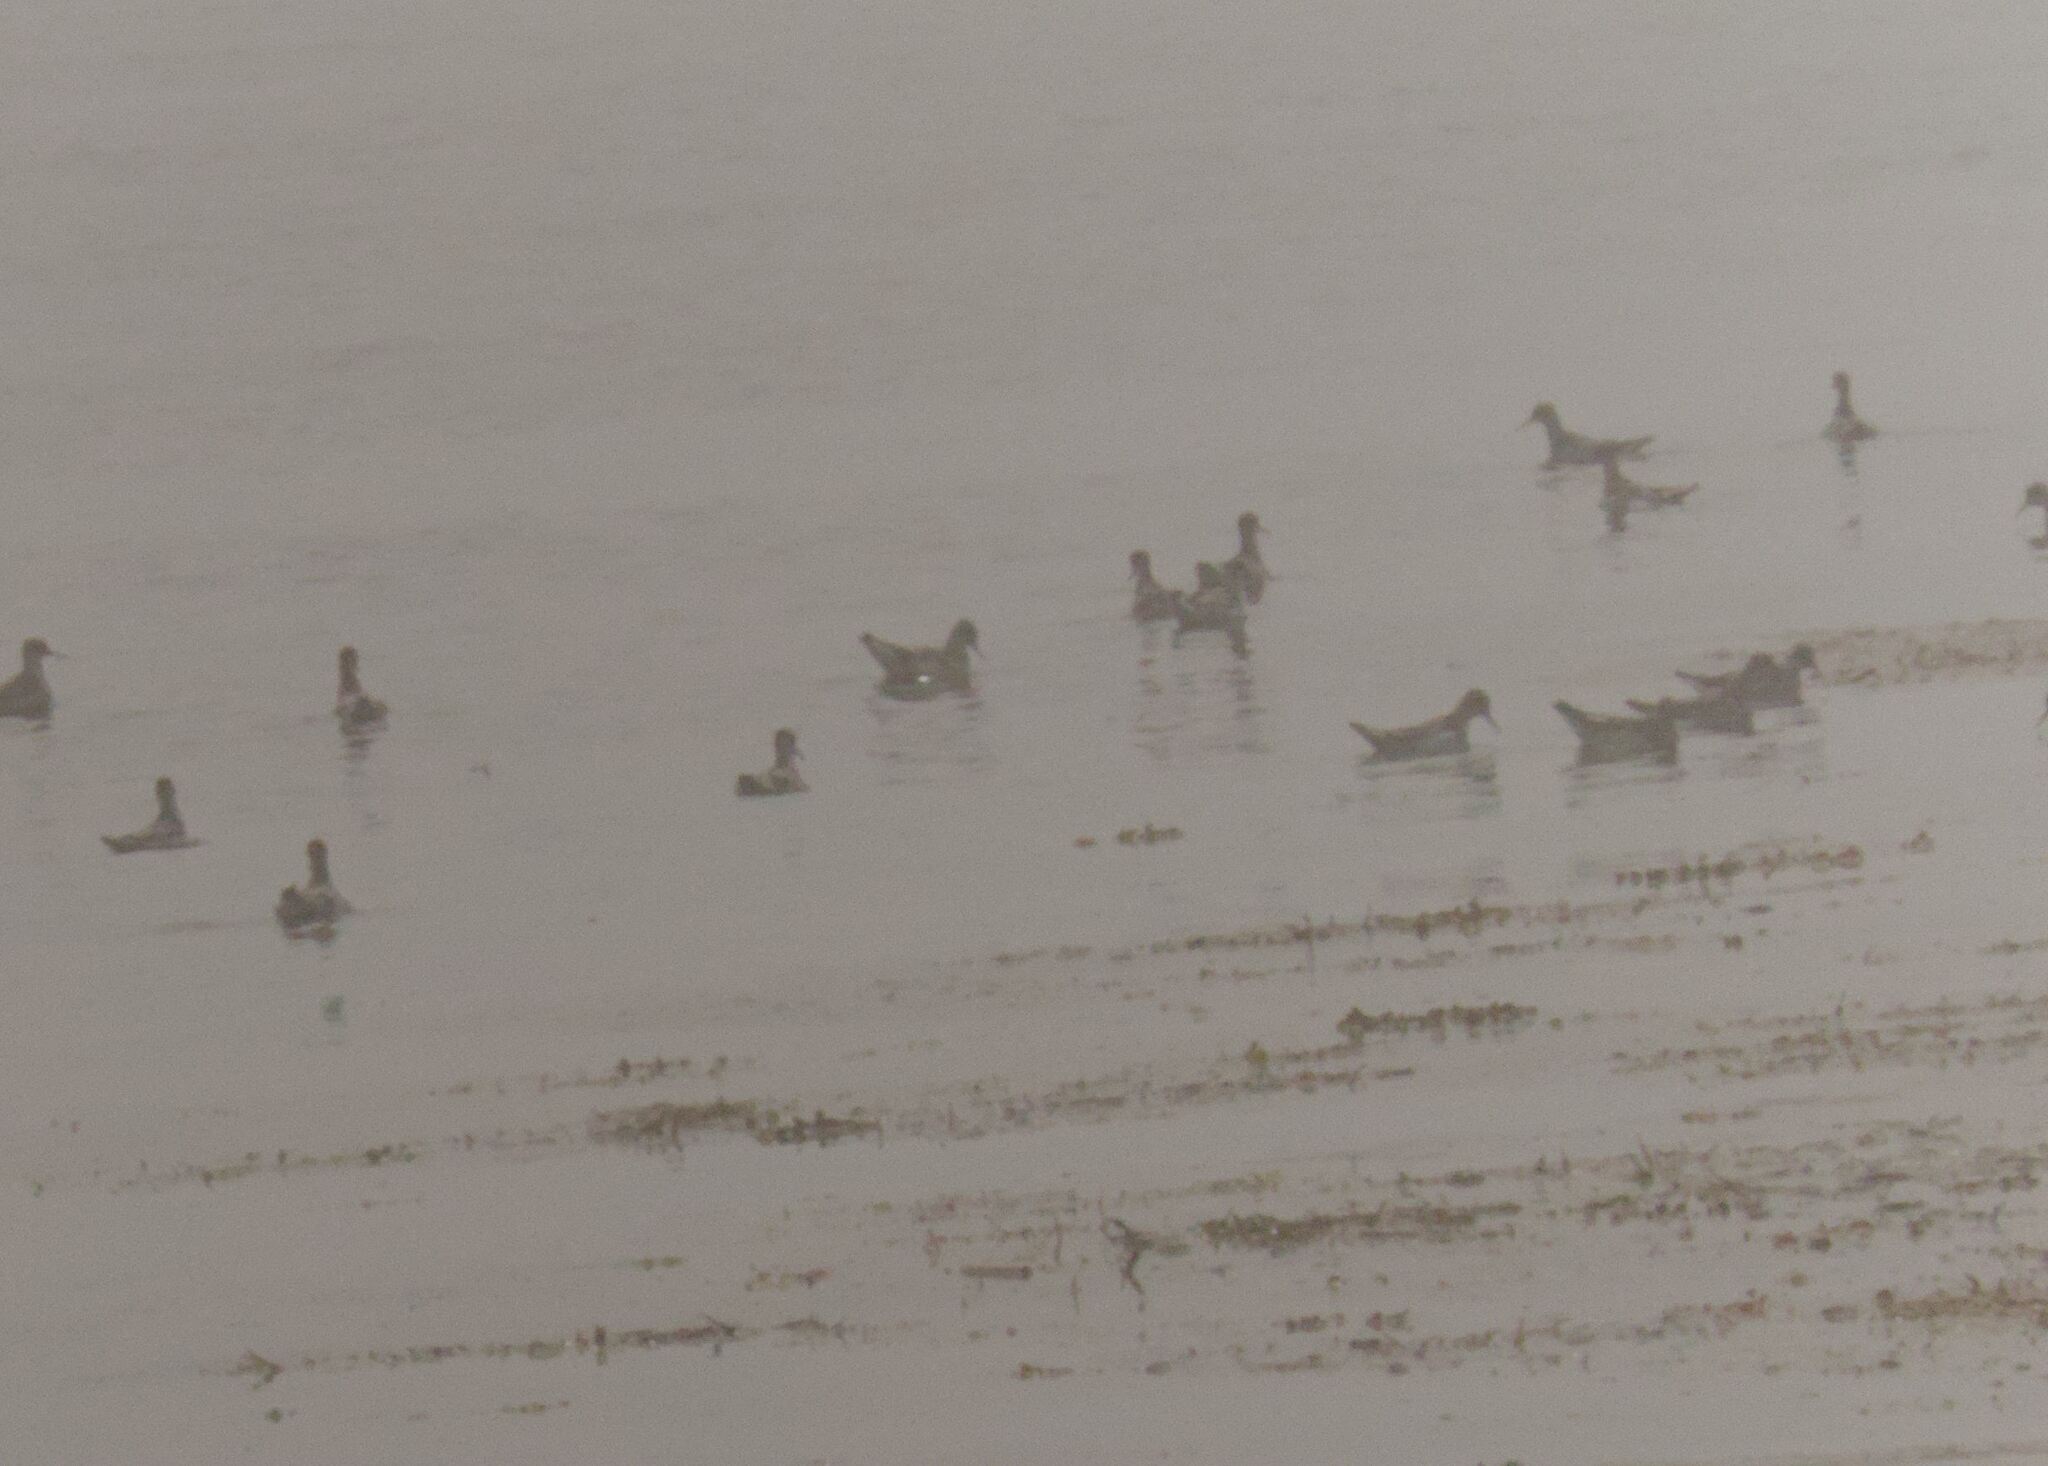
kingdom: Animalia
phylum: Chordata
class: Aves
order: Charadriiformes
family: Scolopacidae
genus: Phalaropus
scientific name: Phalaropus lobatus
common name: Red-necked phalarope
